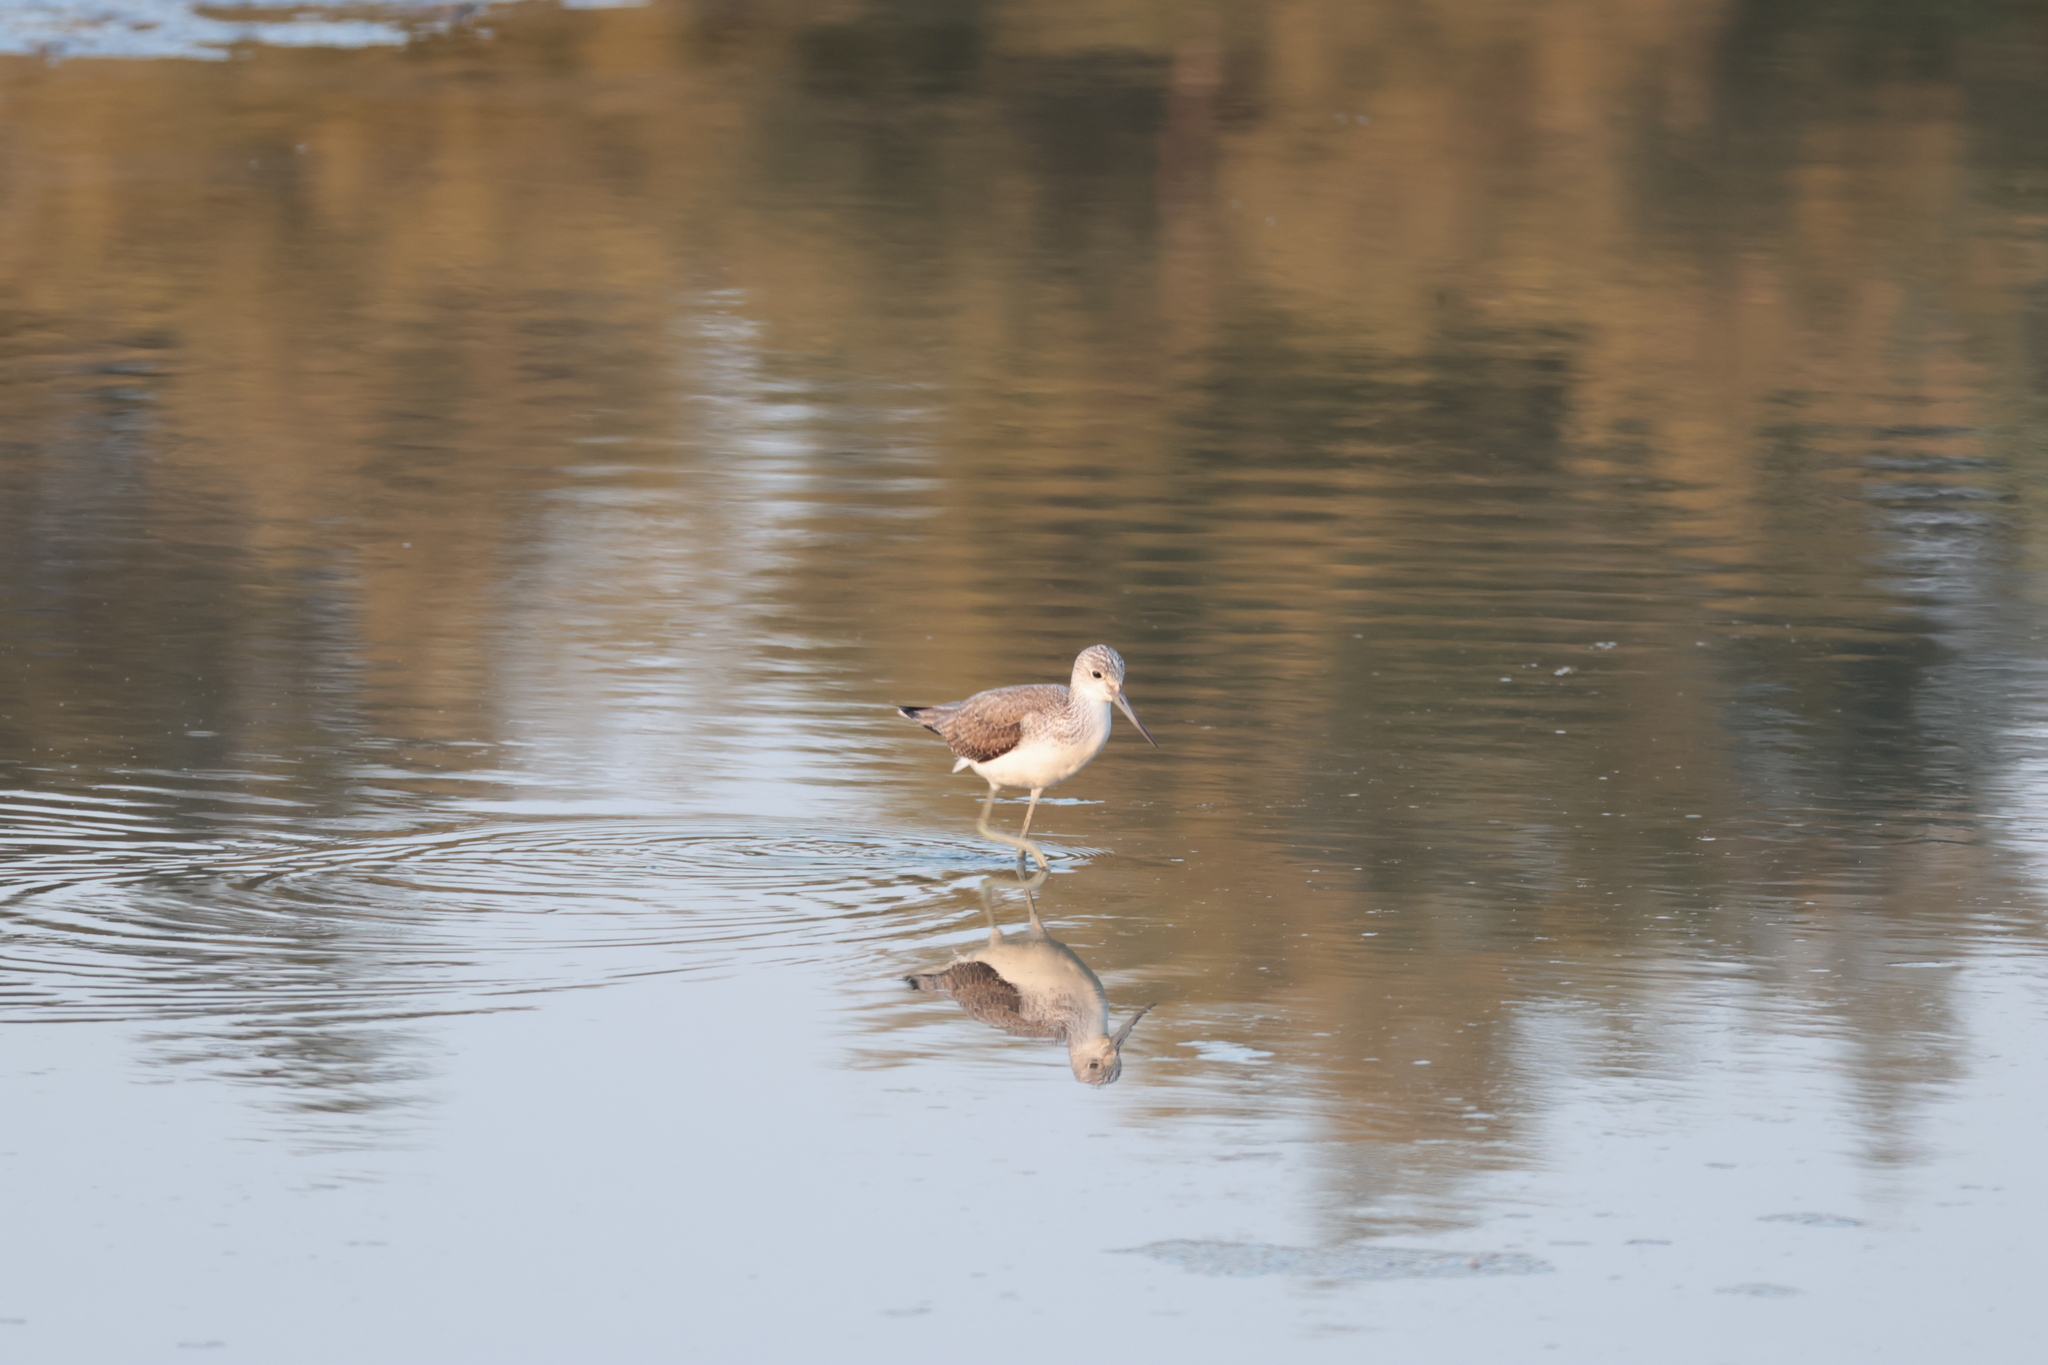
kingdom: Animalia
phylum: Chordata
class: Aves
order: Charadriiformes
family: Scolopacidae
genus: Tringa
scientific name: Tringa nebularia
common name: Common greenshank
